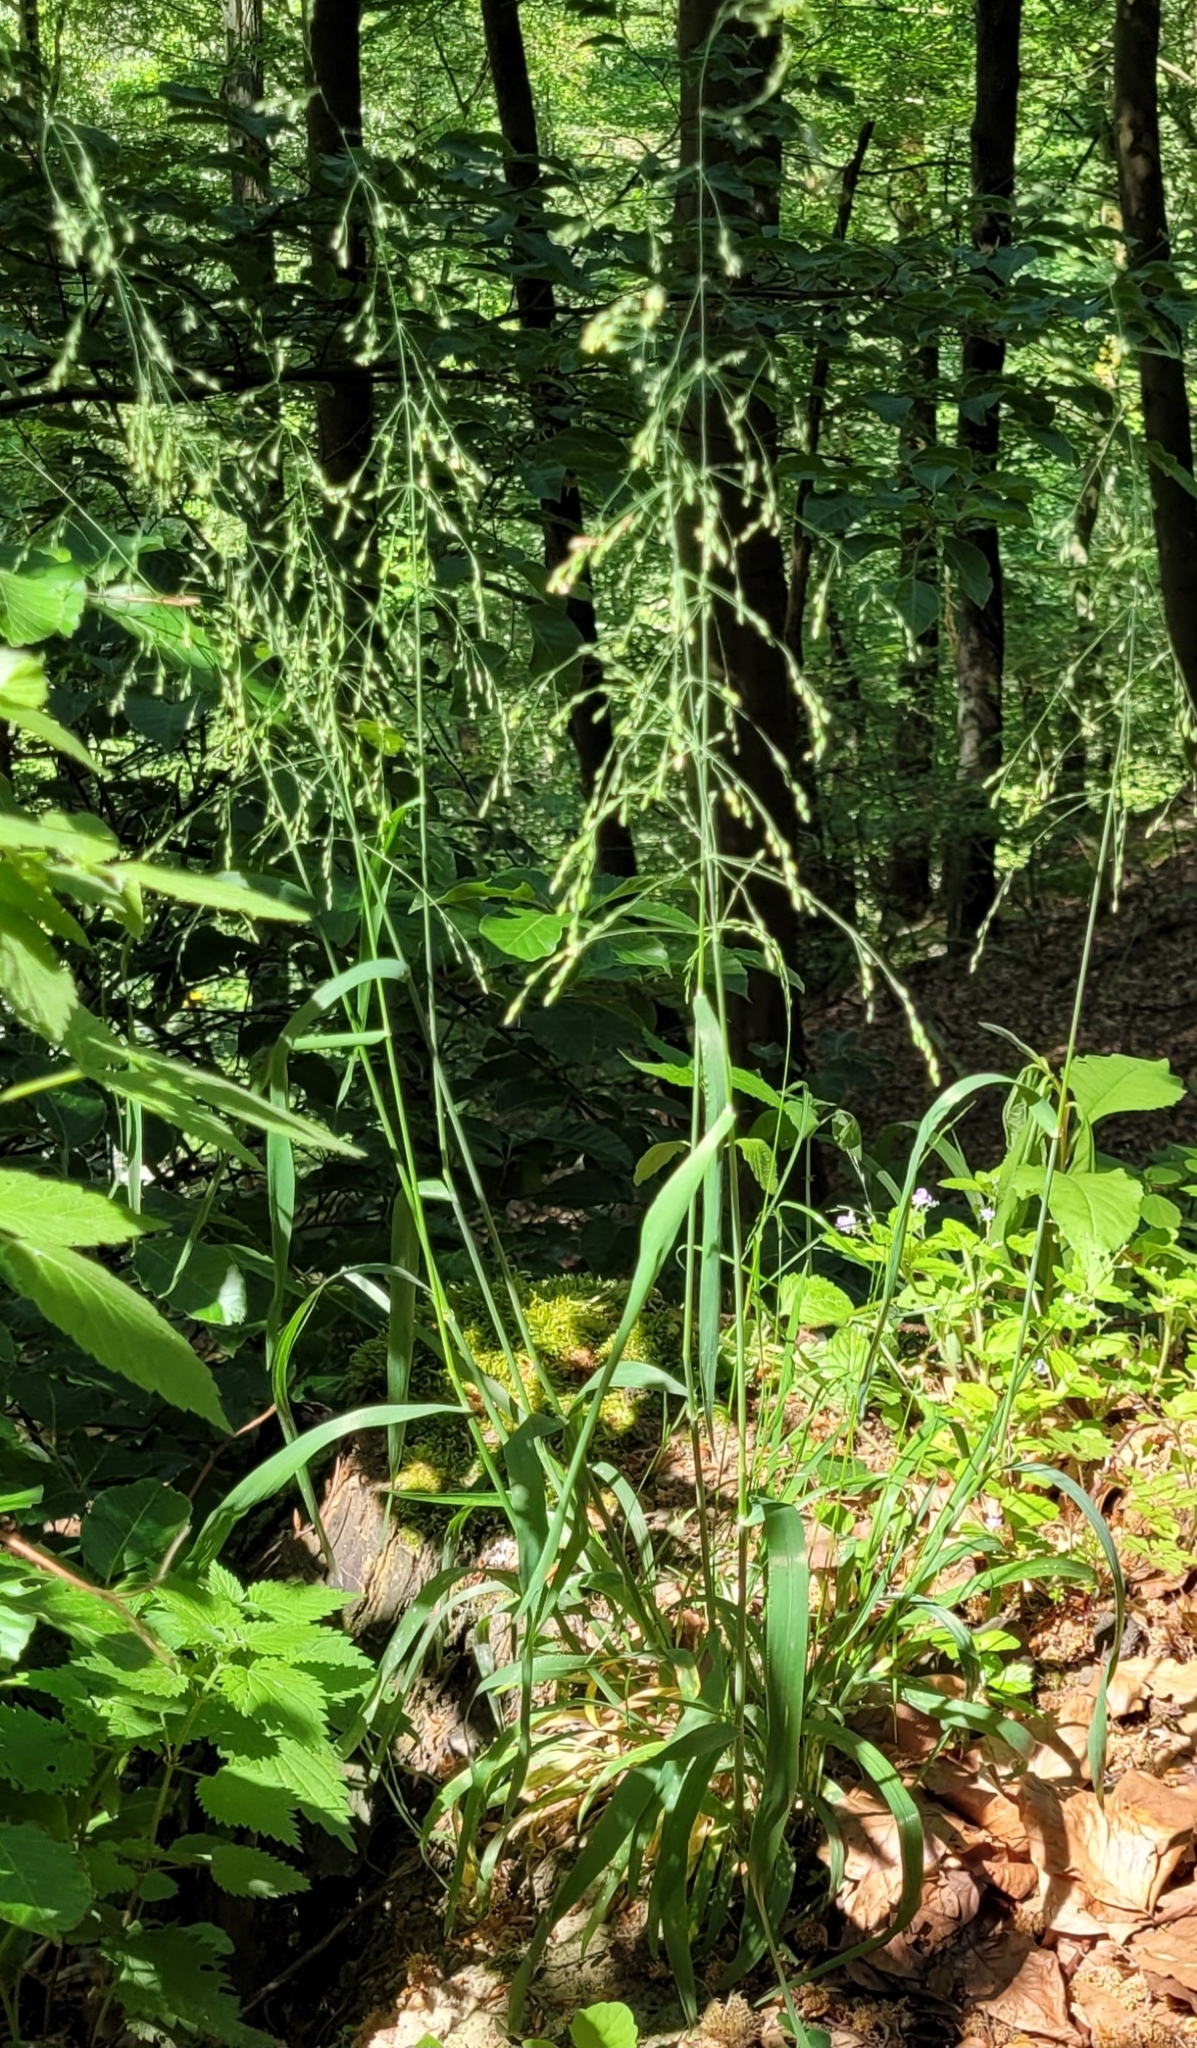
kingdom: Plantae
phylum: Tracheophyta
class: Liliopsida
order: Poales
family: Poaceae
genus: Milium
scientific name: Milium effusum
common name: Wood millet
